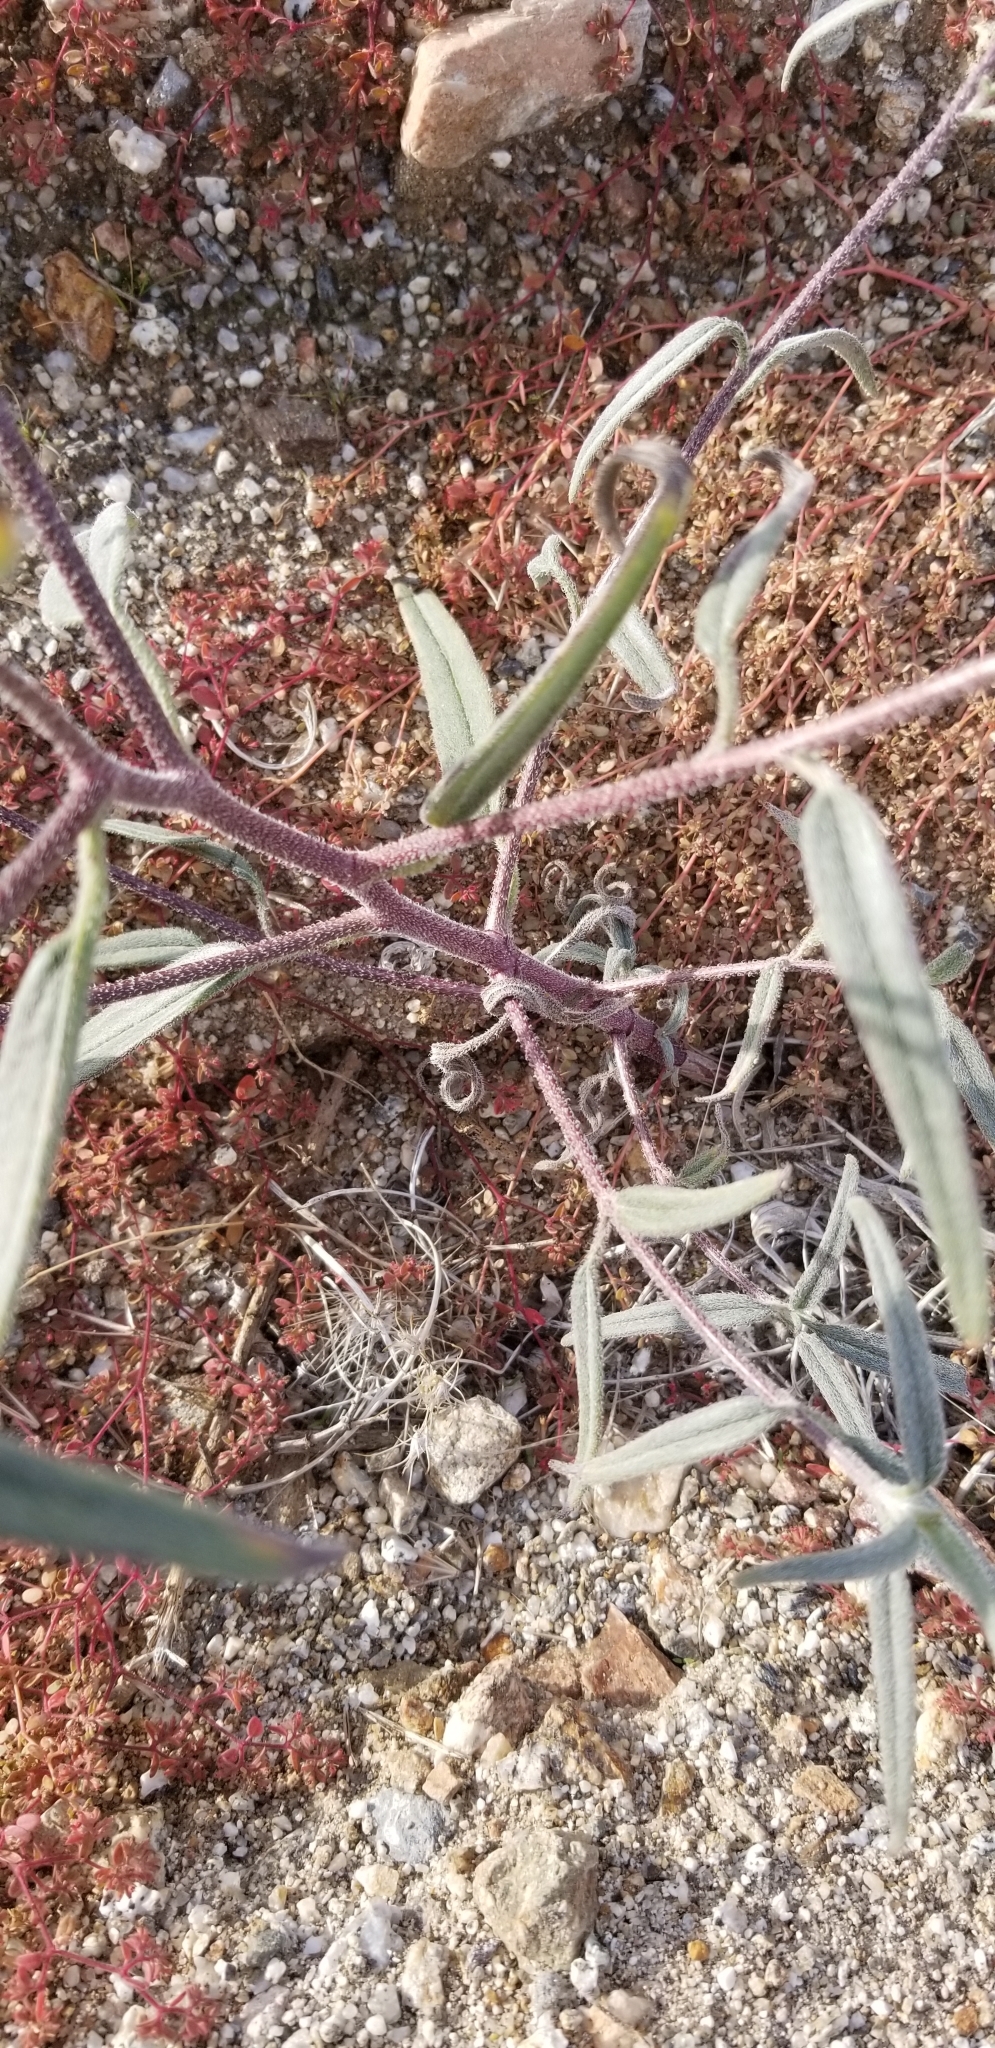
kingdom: Plantae
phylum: Tracheophyta
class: Magnoliopsida
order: Asterales
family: Asteraceae
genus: Palafoxia
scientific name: Palafoxia arida
